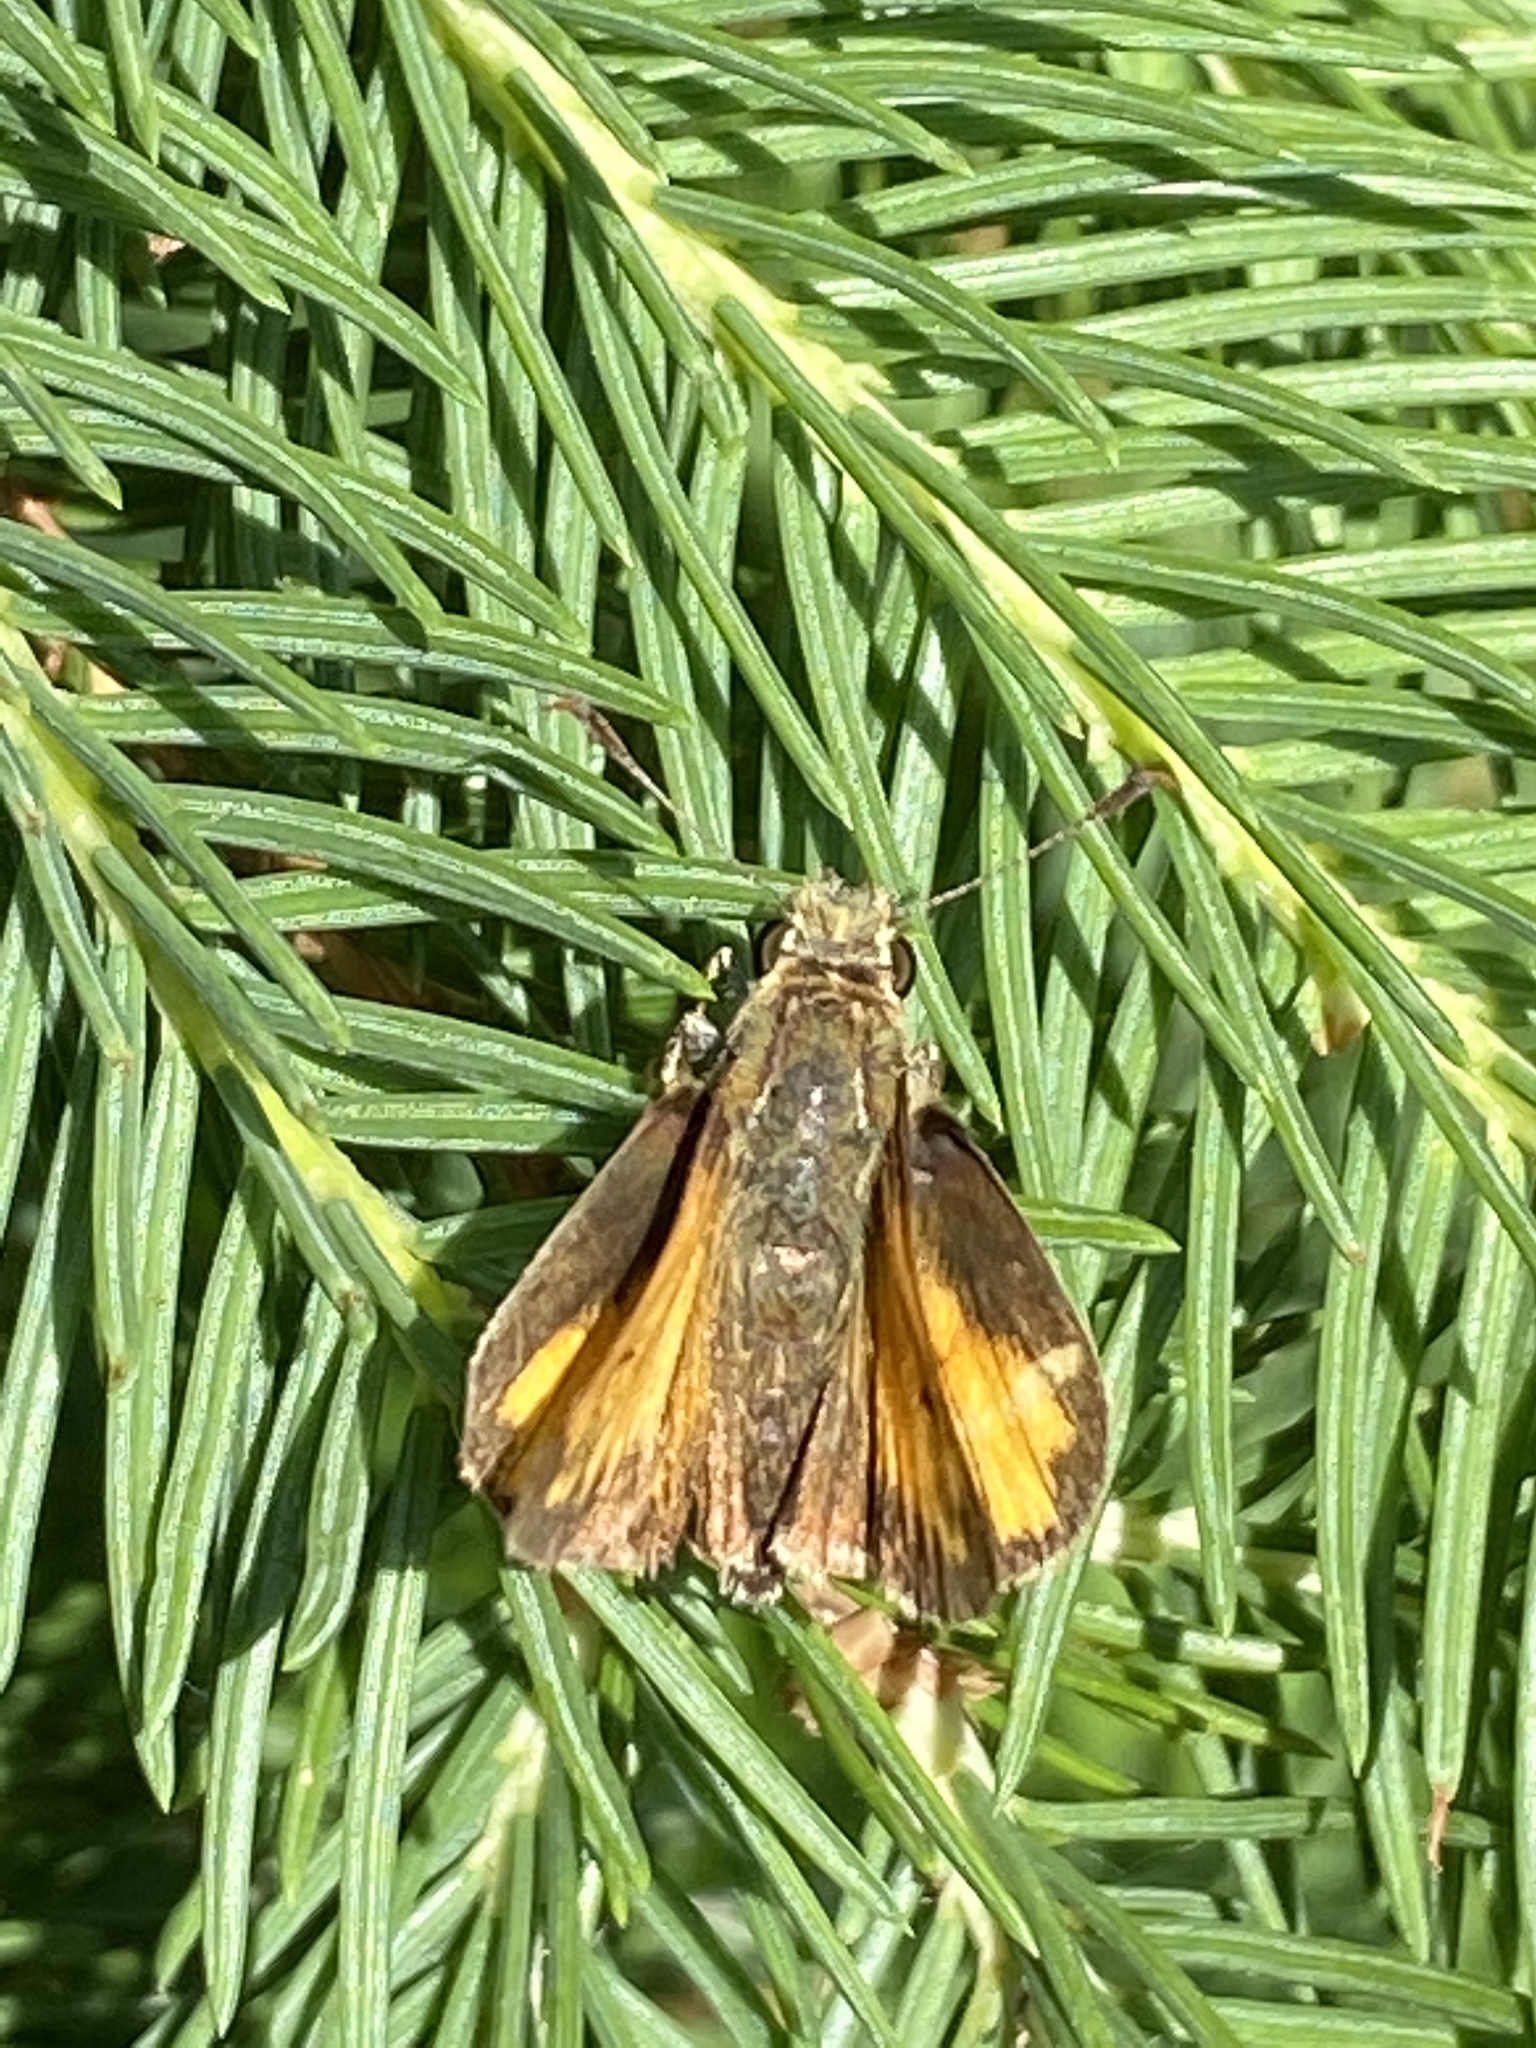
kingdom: Animalia
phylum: Arthropoda
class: Insecta
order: Lepidoptera
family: Hesperiidae
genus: Lon
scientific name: Lon hobomok
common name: Hobomok skipper
